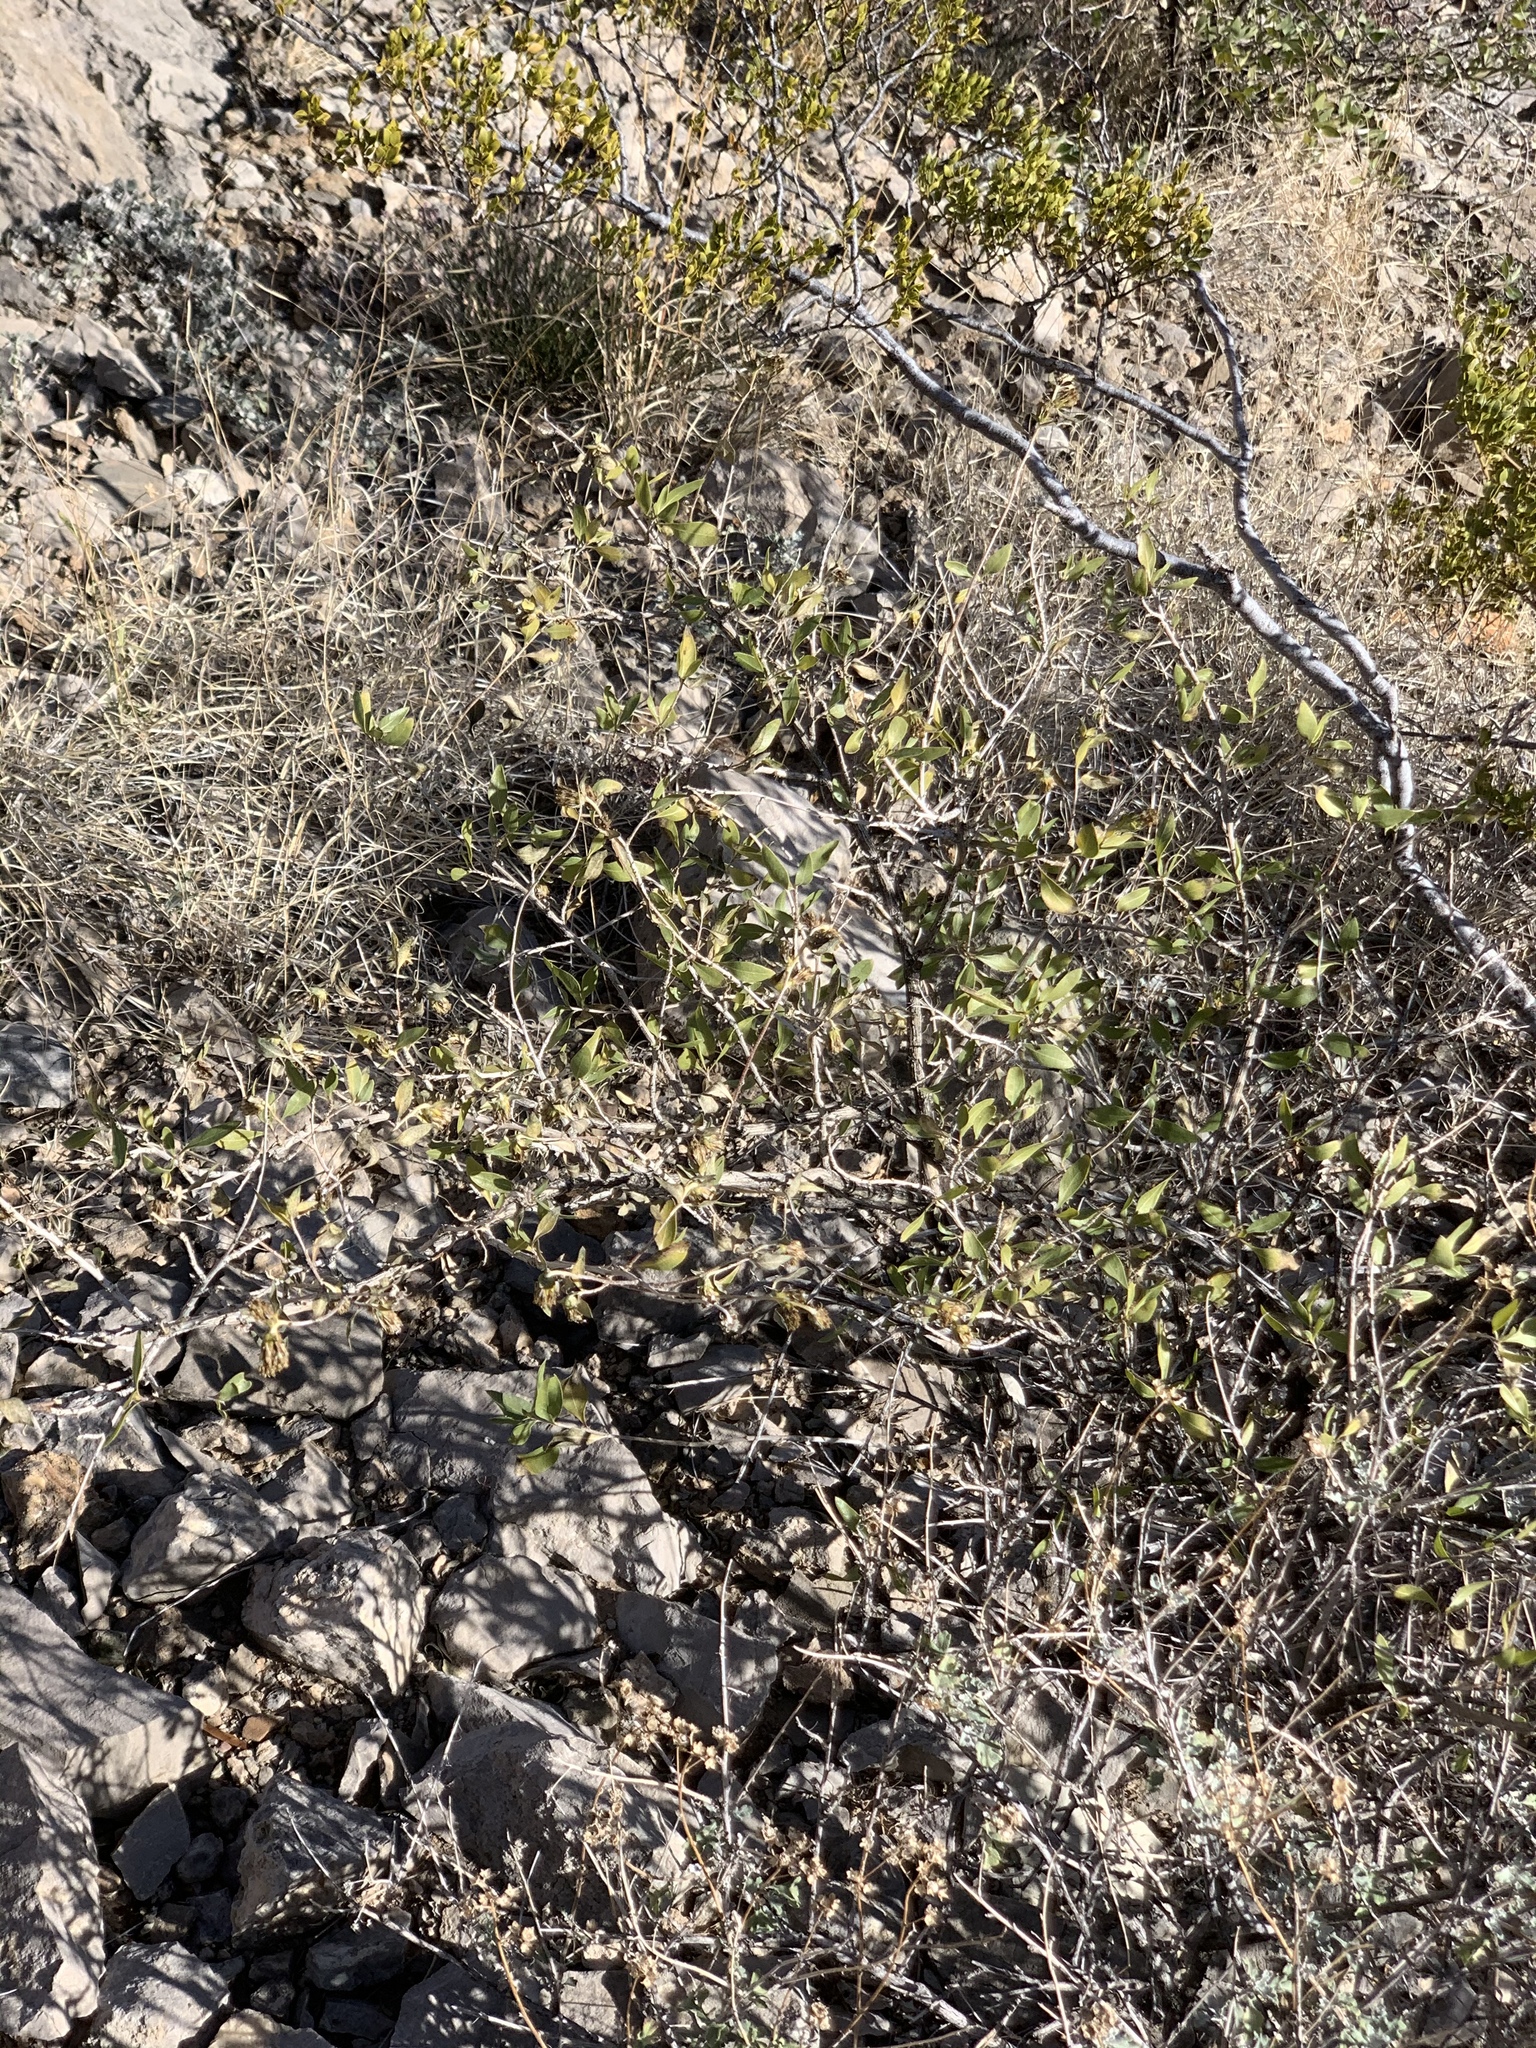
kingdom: Plantae
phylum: Tracheophyta
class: Magnoliopsida
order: Asterales
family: Asteraceae
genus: Flourensia
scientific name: Flourensia cernua
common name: Varnishbush
